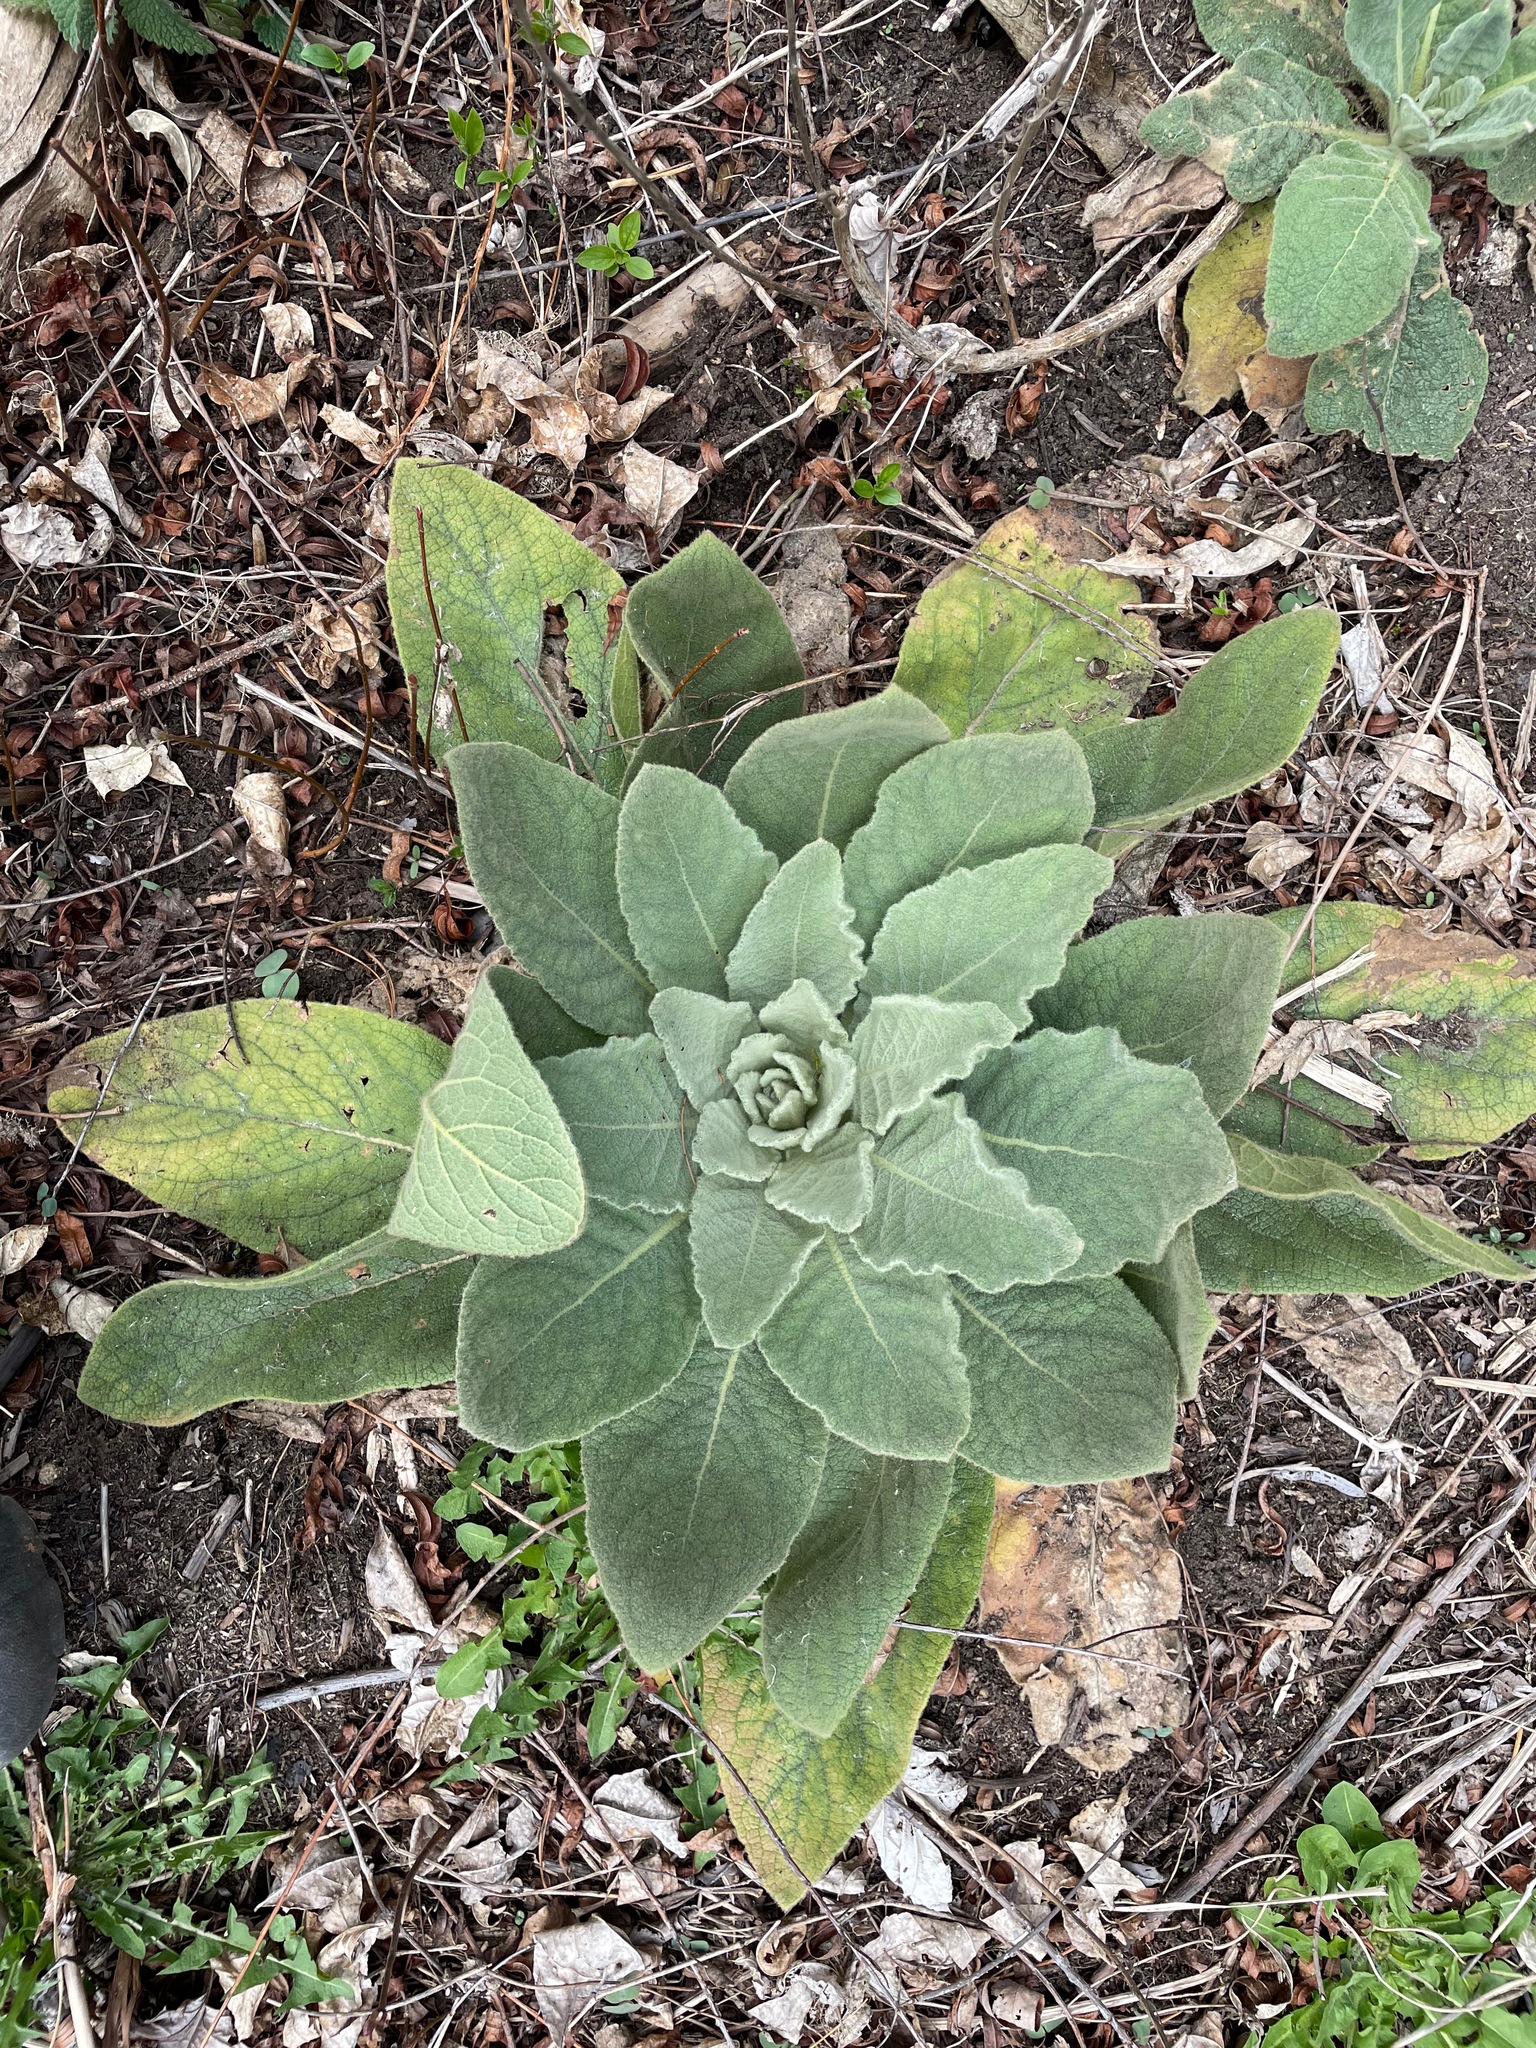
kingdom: Plantae
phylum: Tracheophyta
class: Magnoliopsida
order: Lamiales
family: Scrophulariaceae
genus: Verbascum
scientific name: Verbascum thapsus
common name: Common mullein
